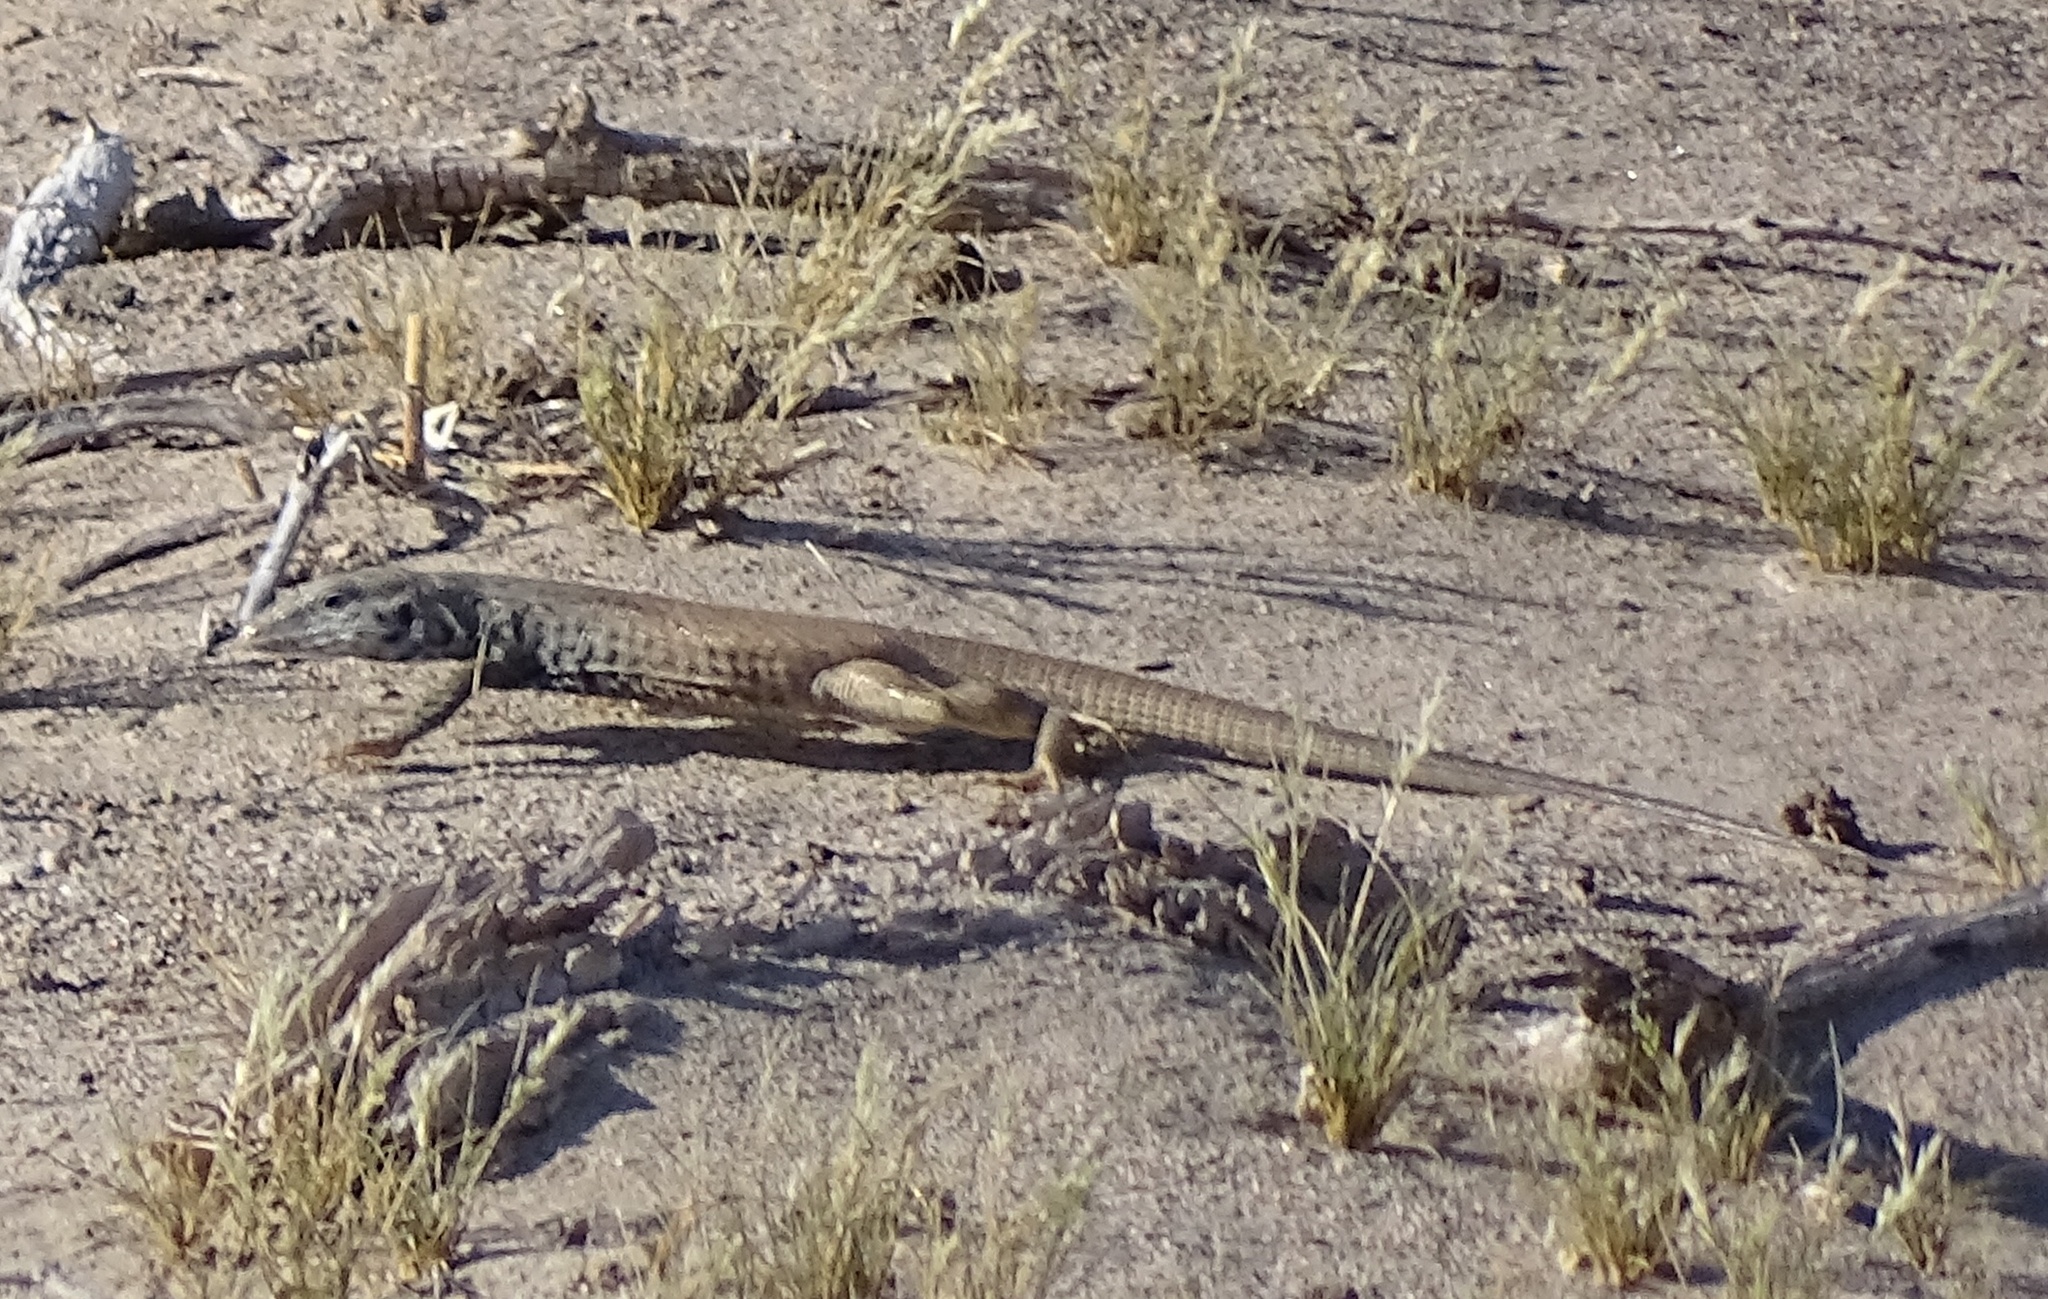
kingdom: Animalia
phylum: Chordata
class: Squamata
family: Teiidae
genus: Aspidoscelis
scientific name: Aspidoscelis tigris
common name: Tiger whiptail
